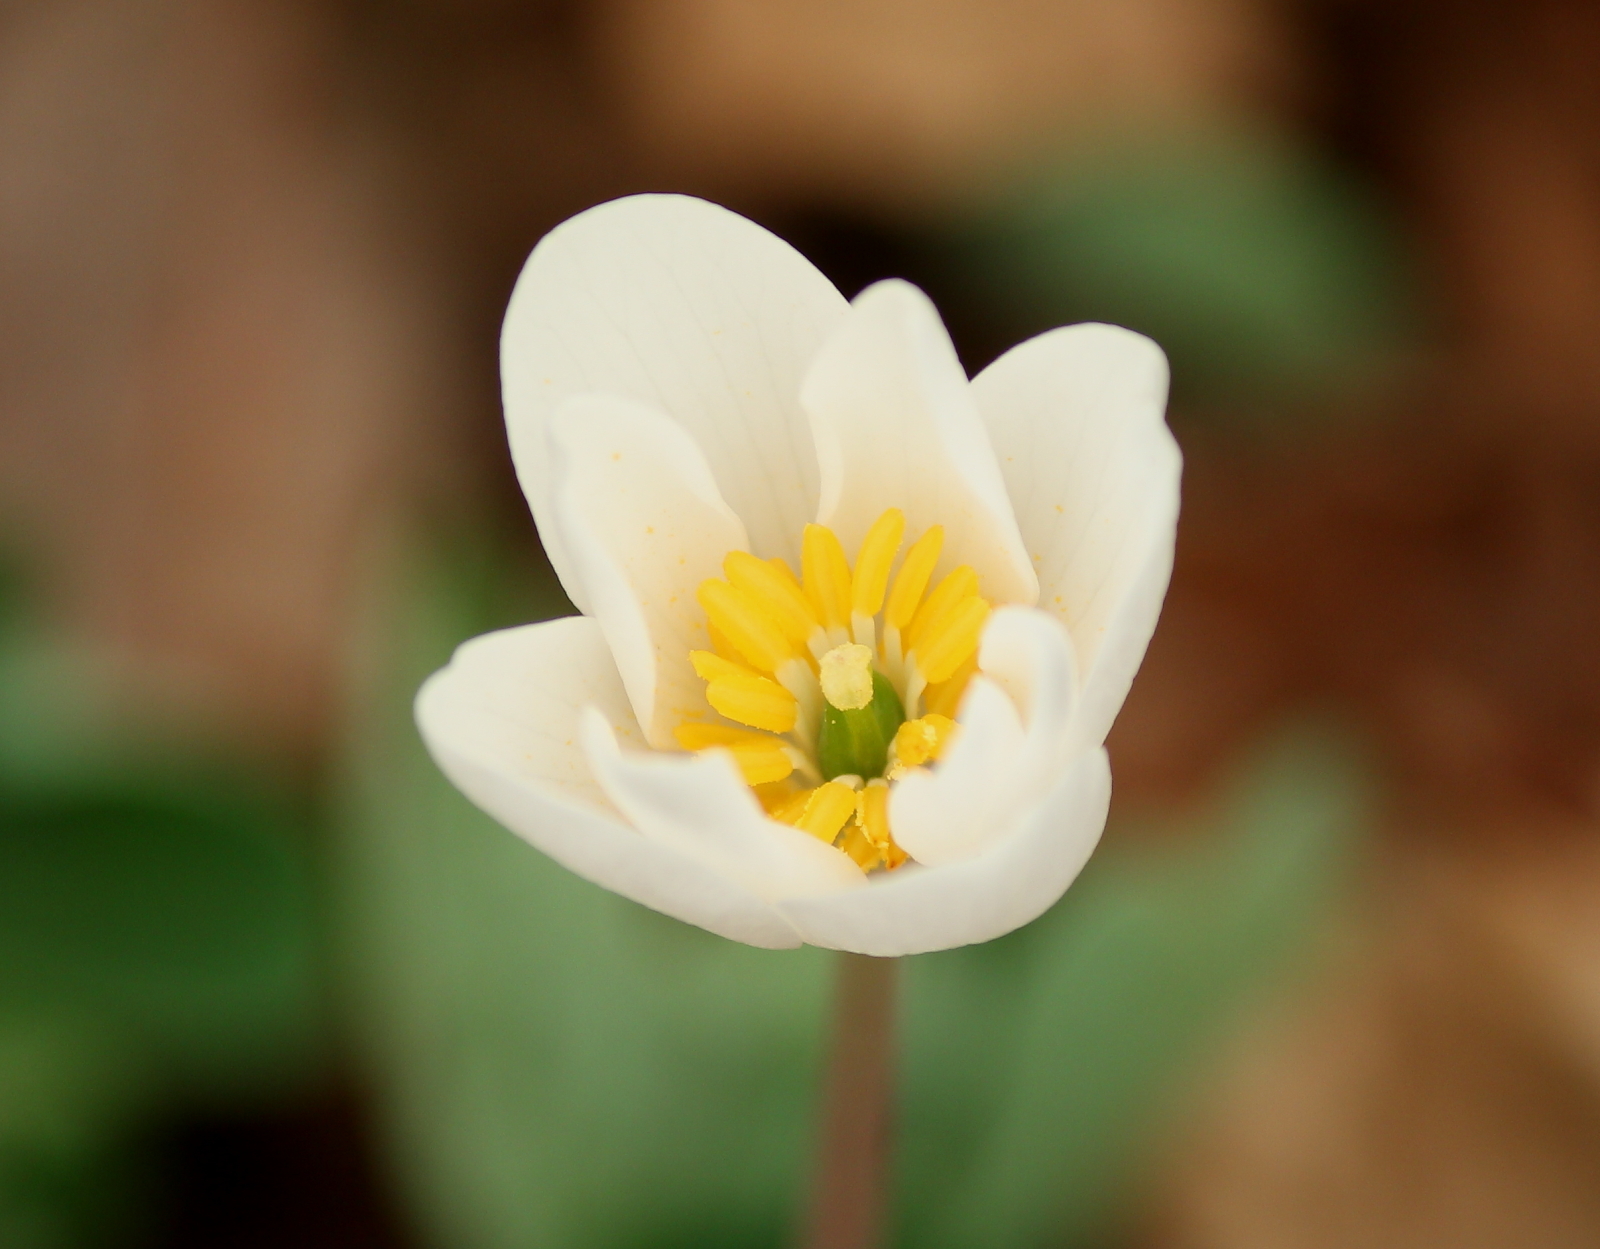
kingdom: Plantae
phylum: Tracheophyta
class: Magnoliopsida
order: Ranunculales
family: Papaveraceae
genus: Sanguinaria
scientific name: Sanguinaria canadensis
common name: Bloodroot
